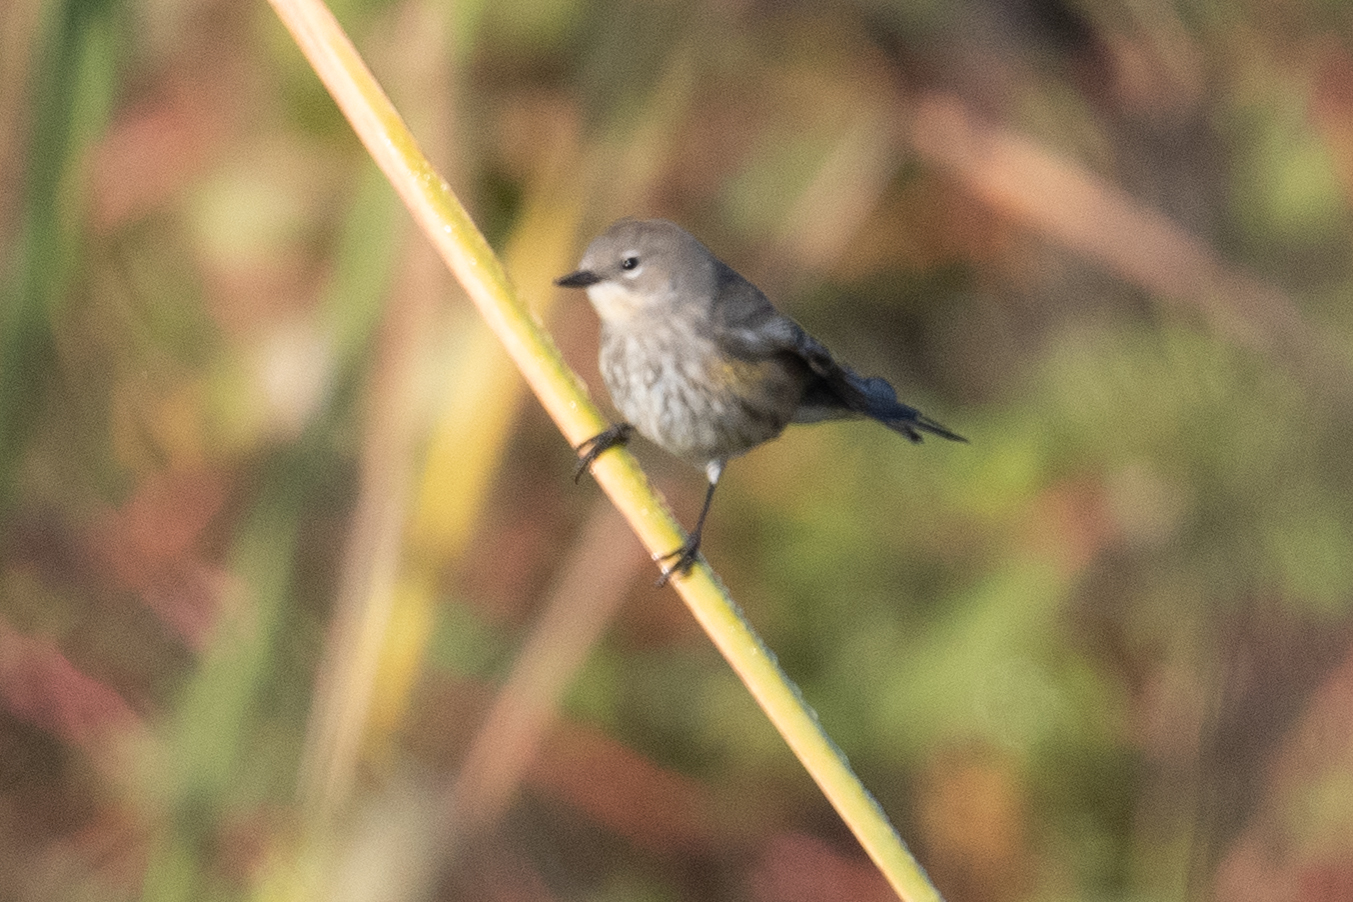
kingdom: Animalia
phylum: Chordata
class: Aves
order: Passeriformes
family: Parulidae
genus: Setophaga
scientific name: Setophaga coronata
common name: Myrtle warbler
